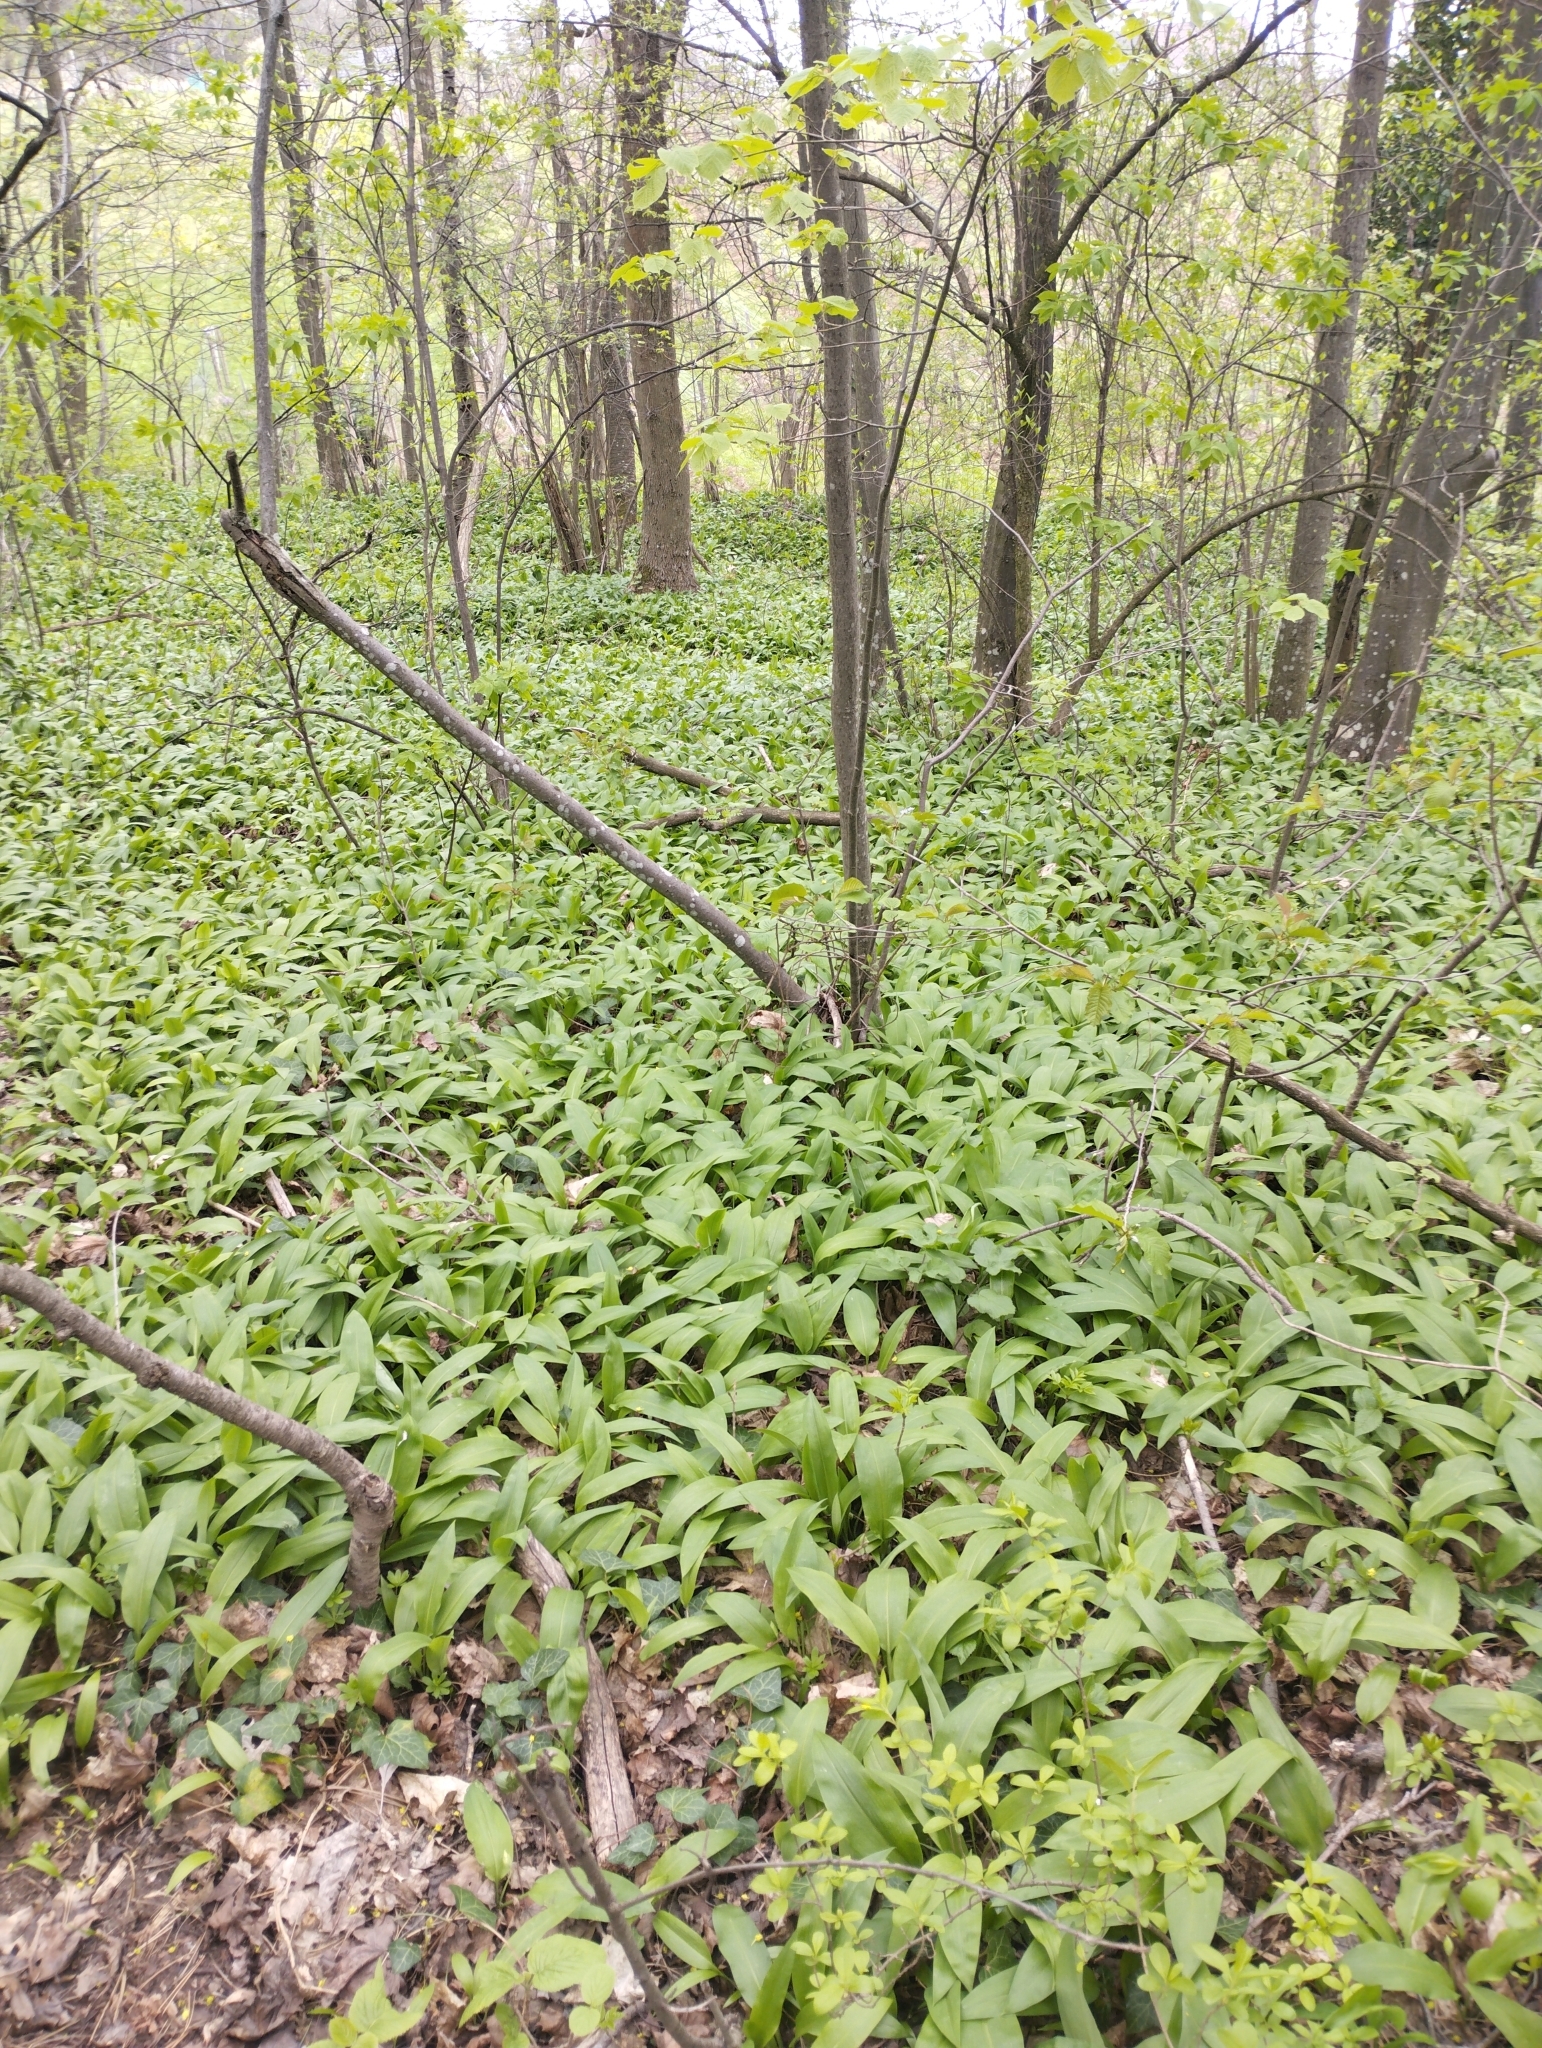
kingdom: Plantae
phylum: Tracheophyta
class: Liliopsida
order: Asparagales
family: Amaryllidaceae
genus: Allium
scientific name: Allium ursinum
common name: Ramsons
